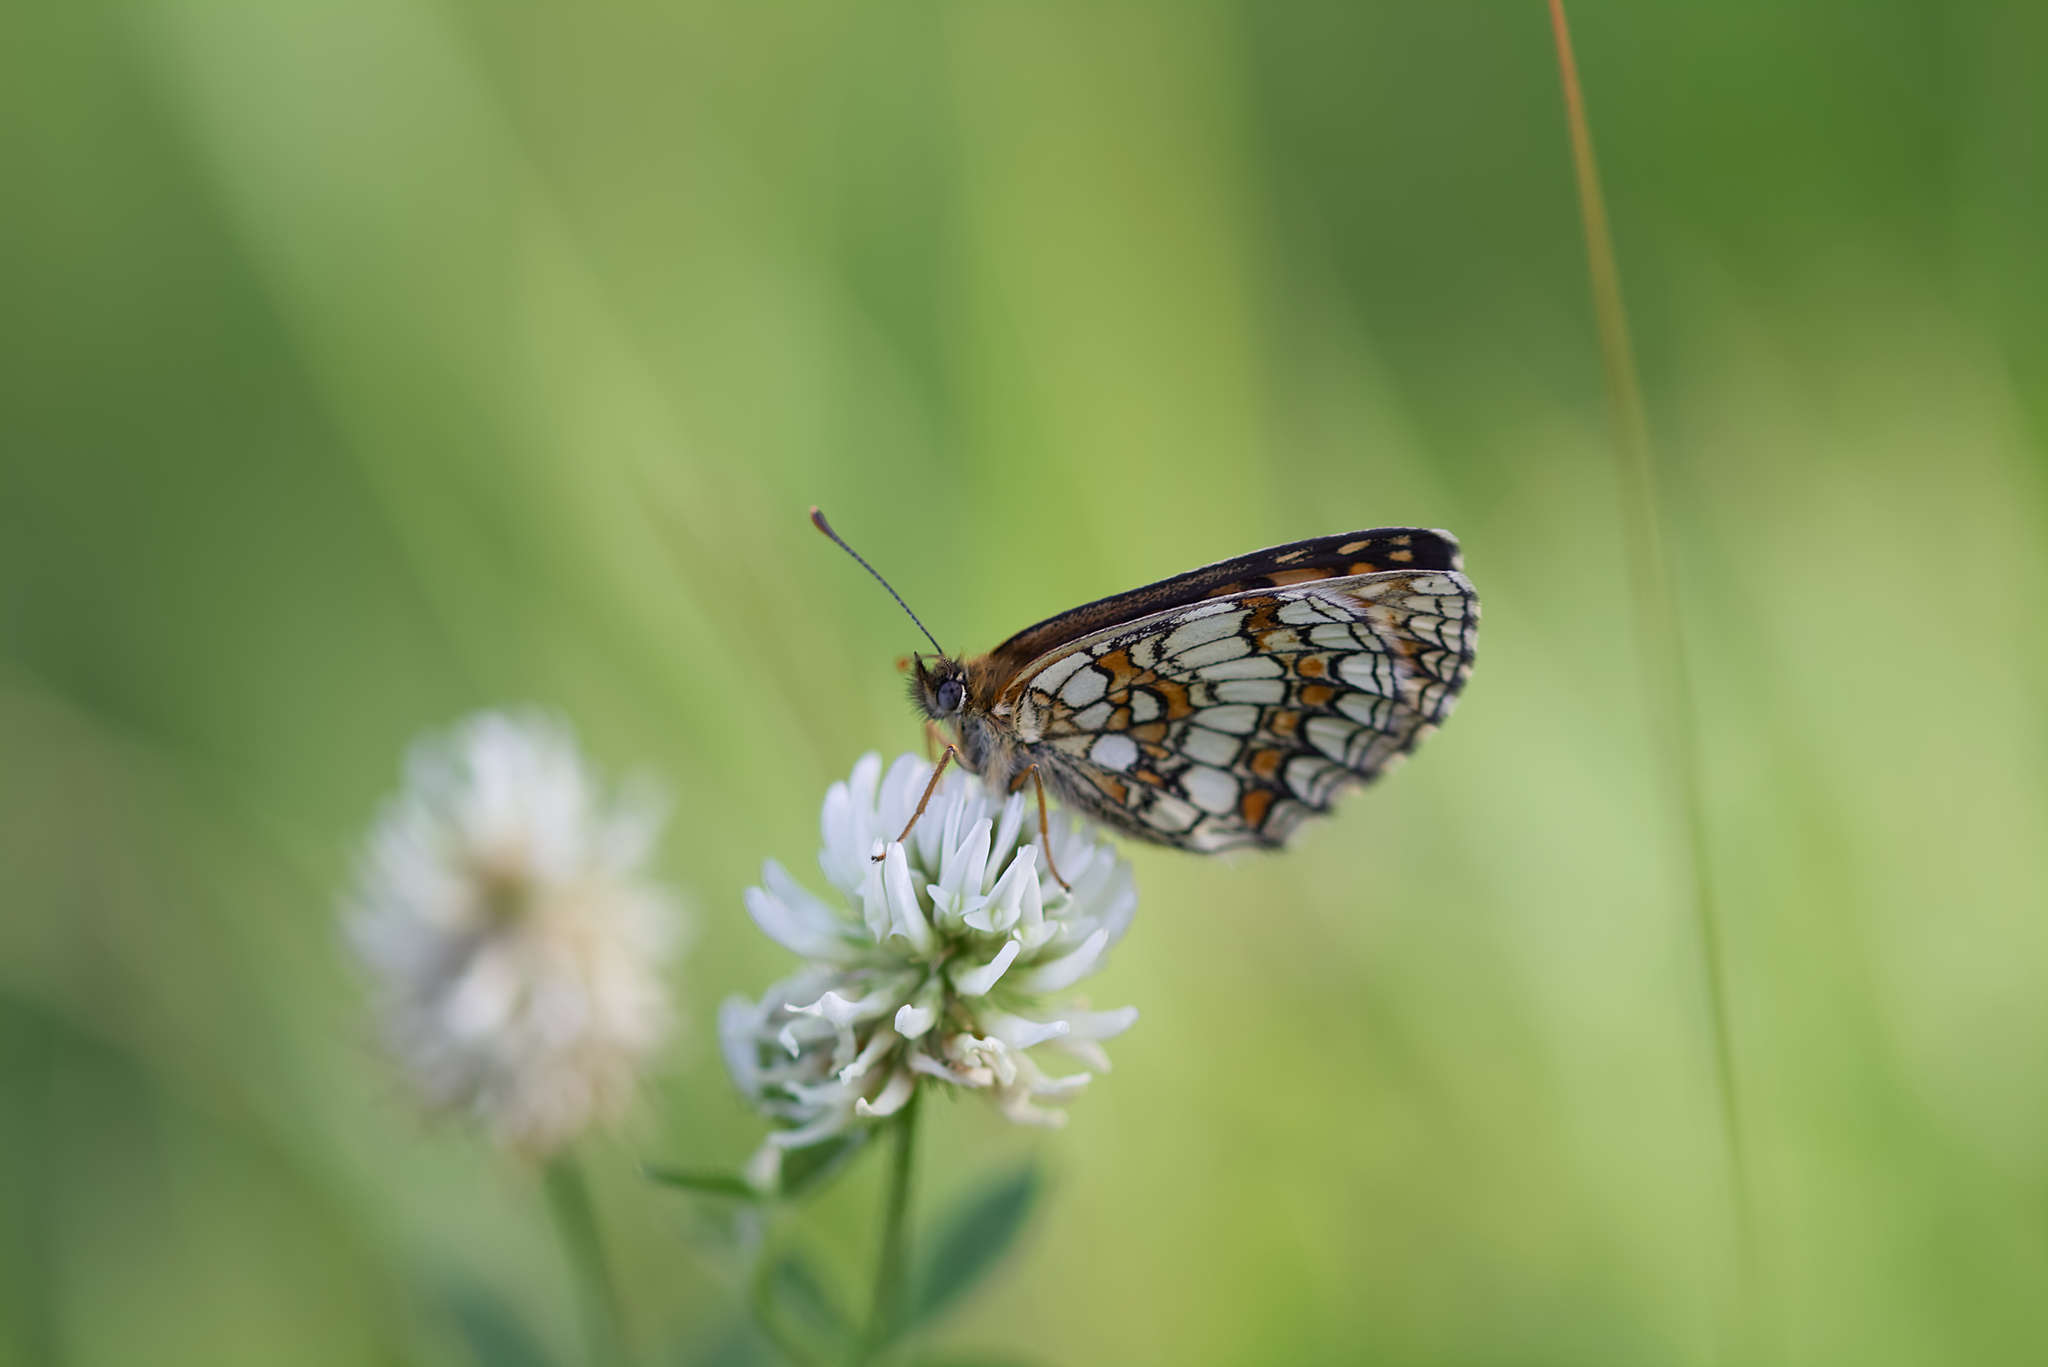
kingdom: Animalia
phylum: Arthropoda
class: Insecta
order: Lepidoptera
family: Nymphalidae
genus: Melitaea
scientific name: Melitaea athalia
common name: Heath fritillary
